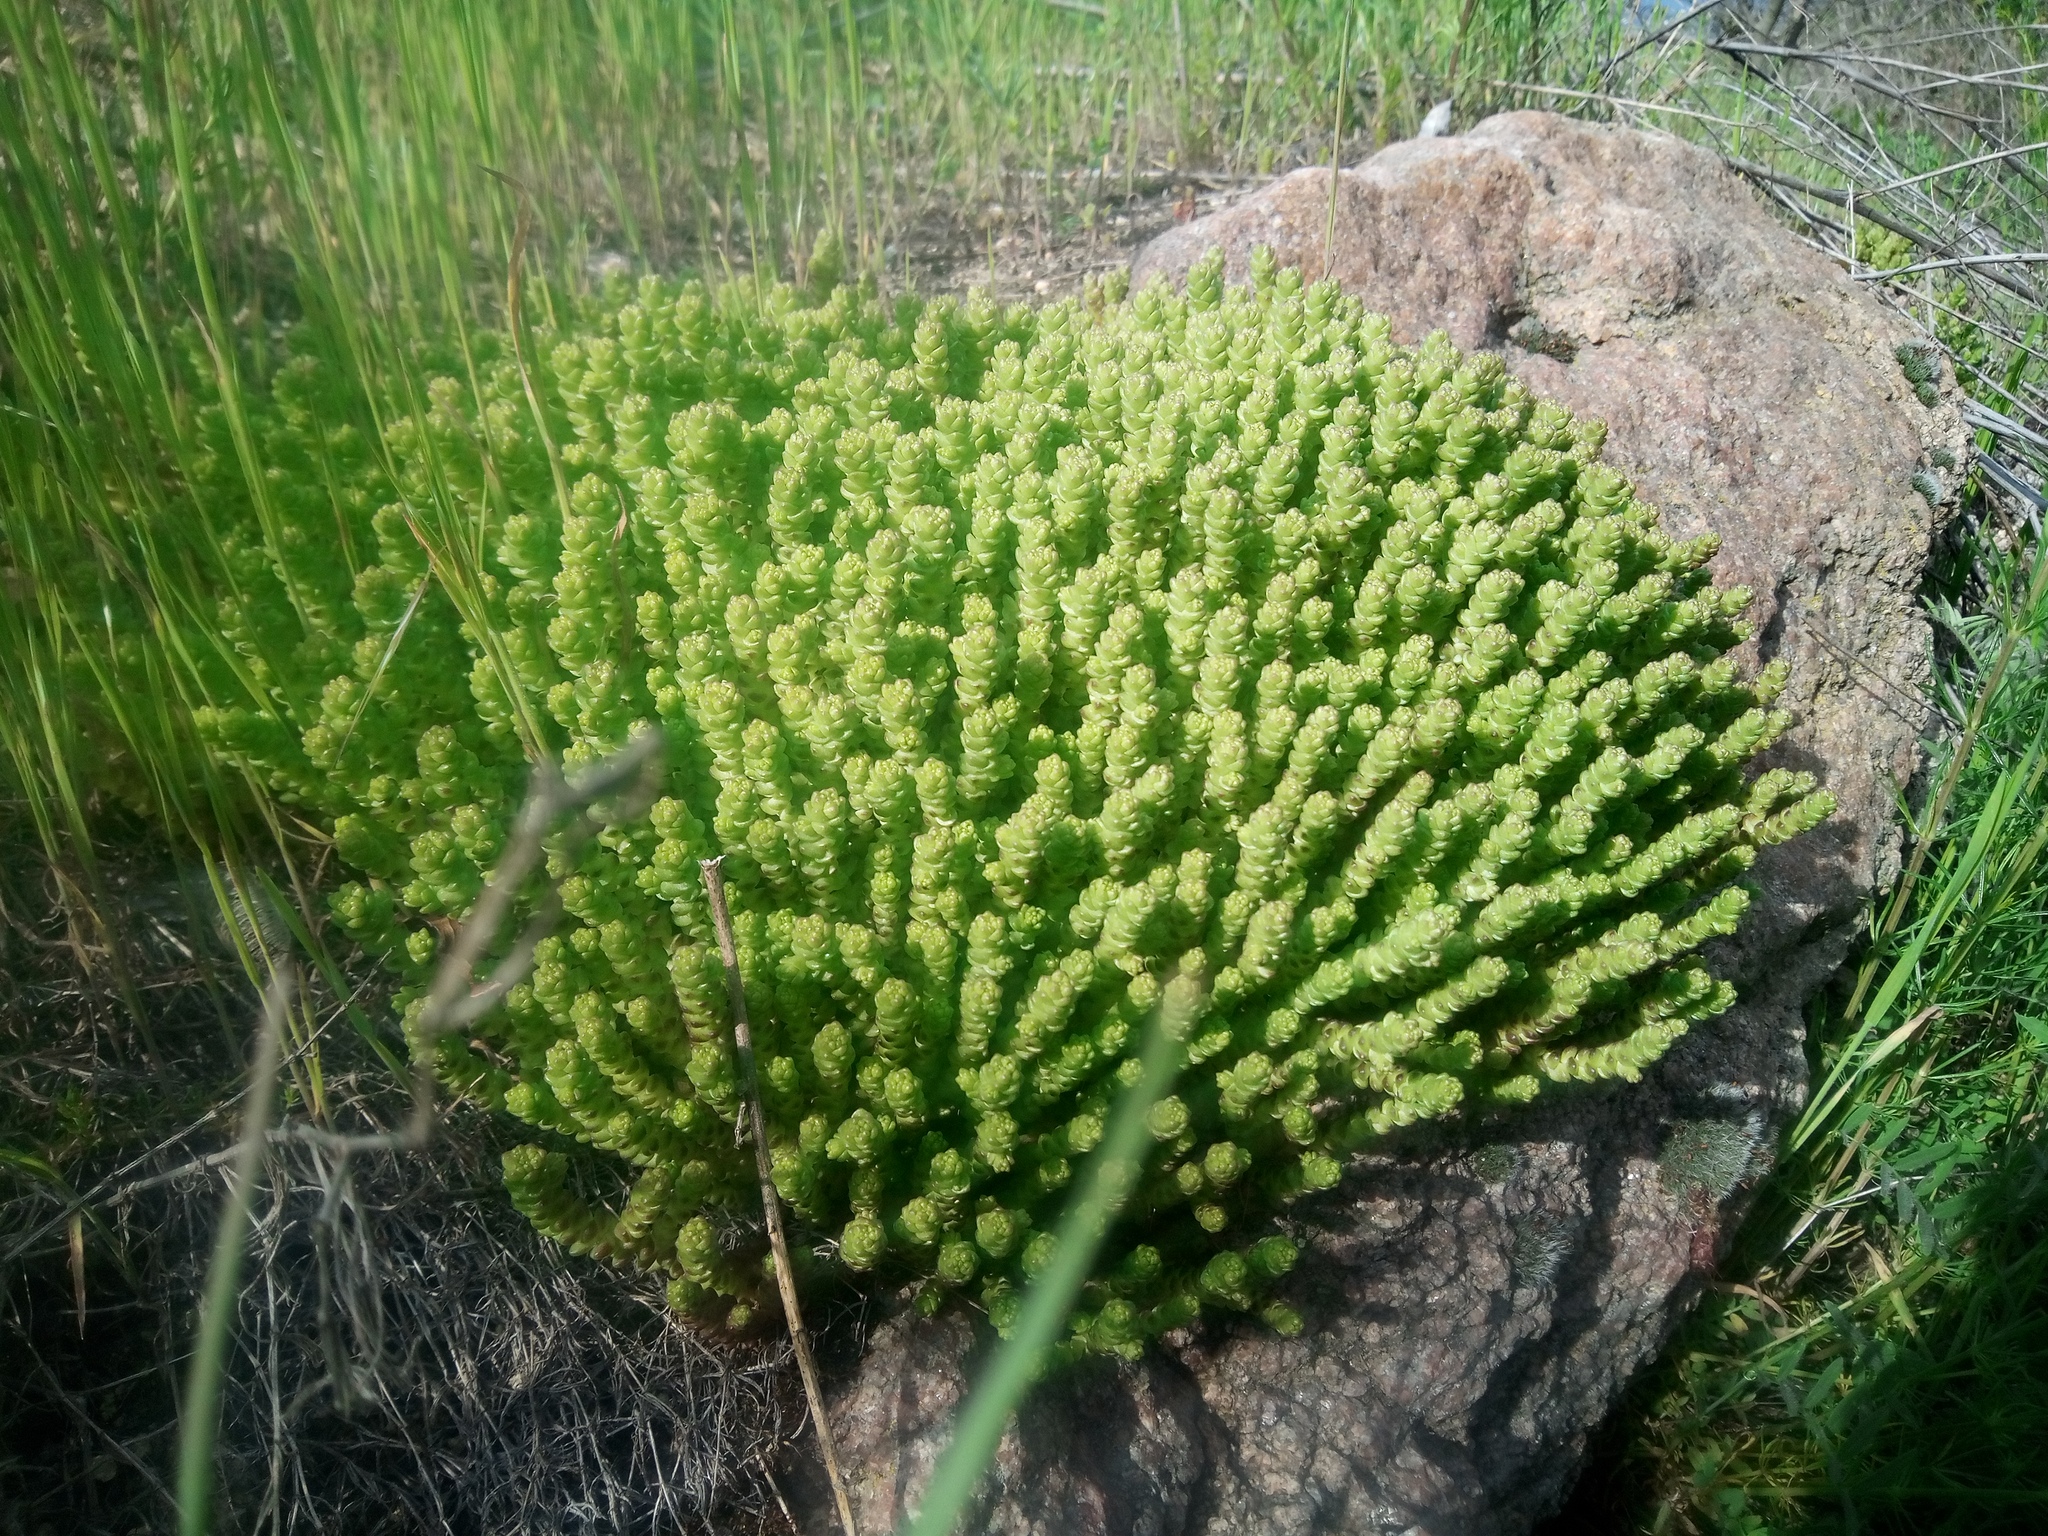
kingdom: Plantae
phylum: Tracheophyta
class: Magnoliopsida
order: Saxifragales
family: Crassulaceae
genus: Sedum
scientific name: Sedum acre
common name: Biting stonecrop
